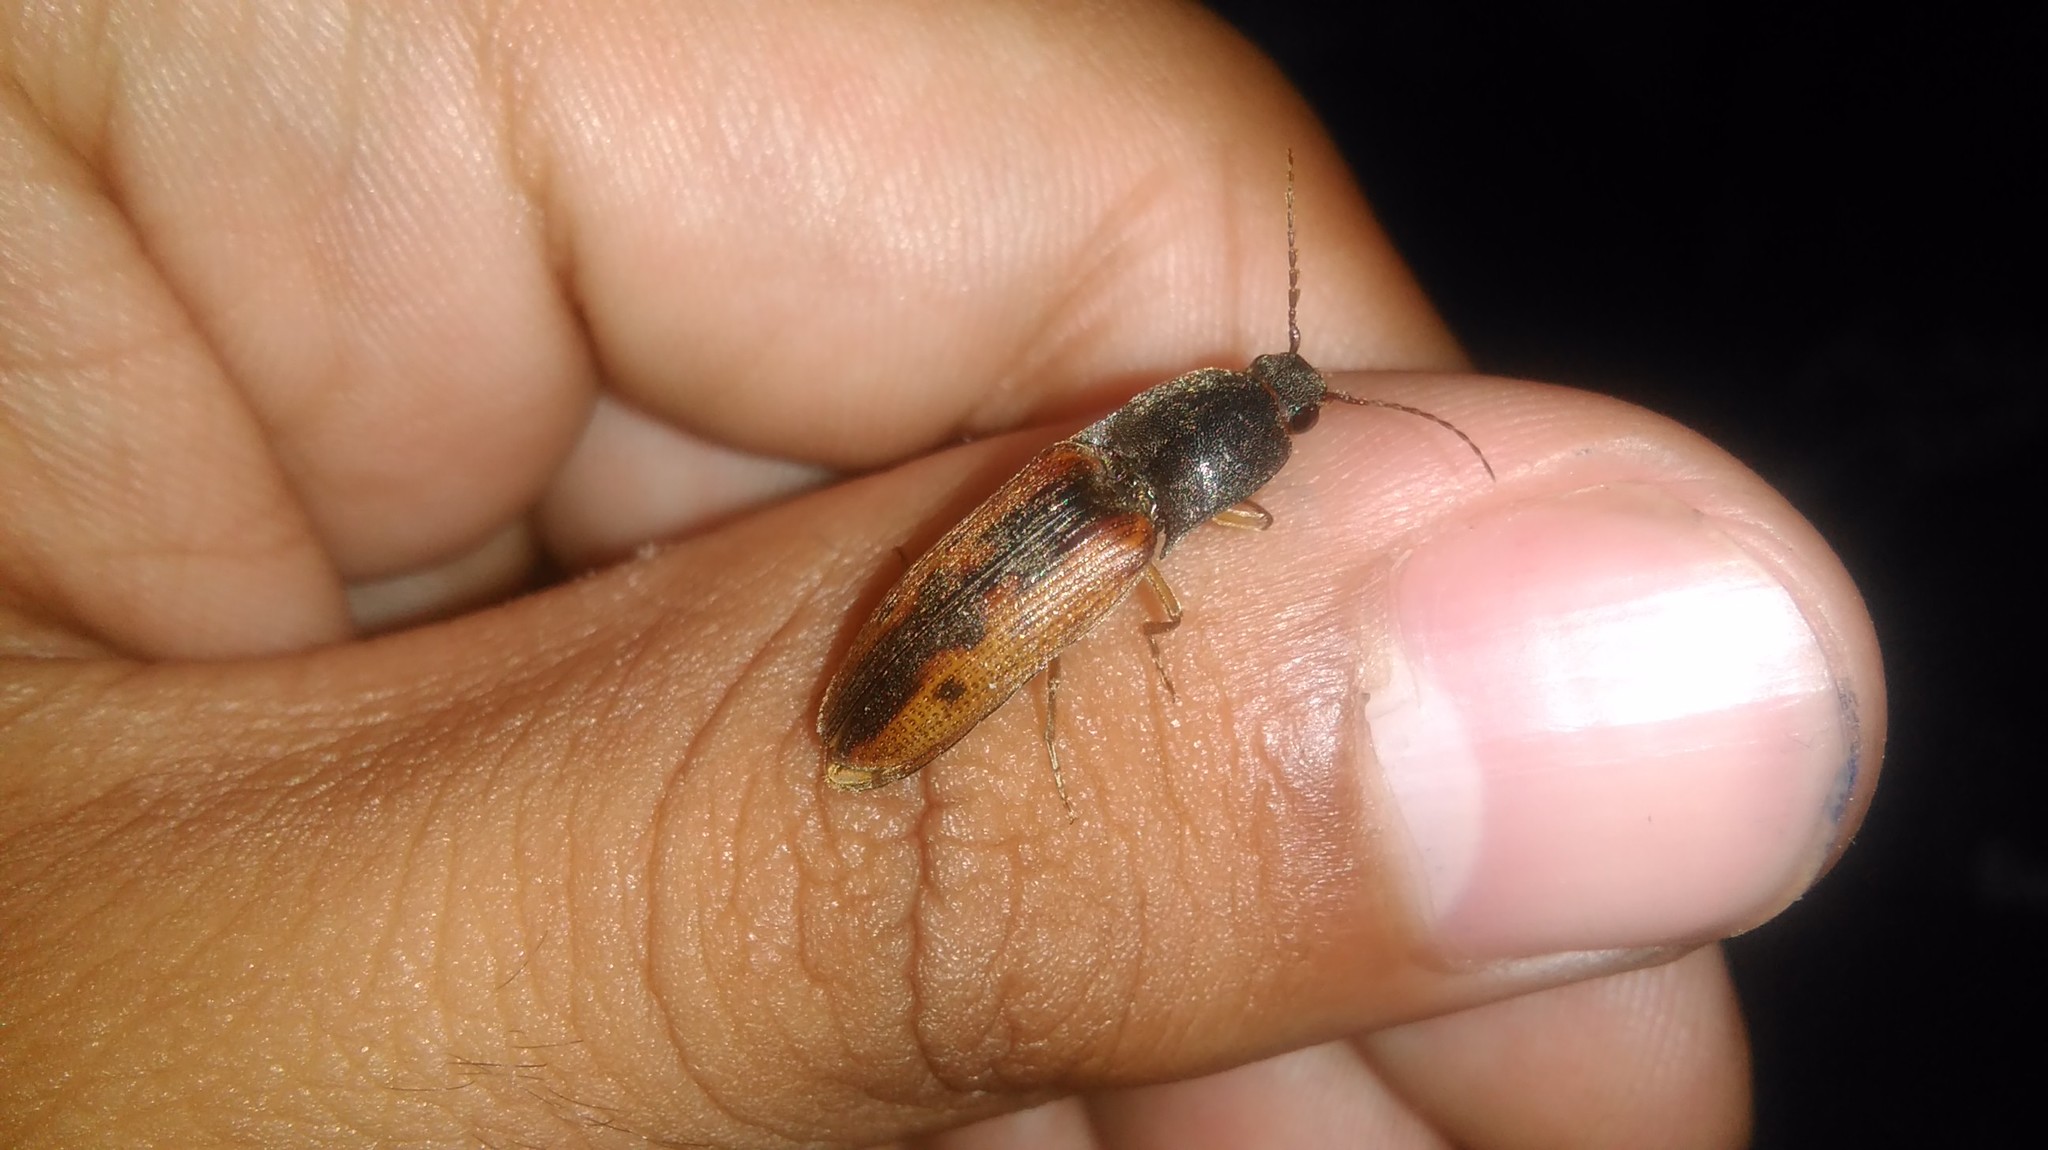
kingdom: Animalia
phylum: Arthropoda
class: Insecta
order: Coleoptera
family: Elateridae
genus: Monocrepidius
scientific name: Monocrepidius
